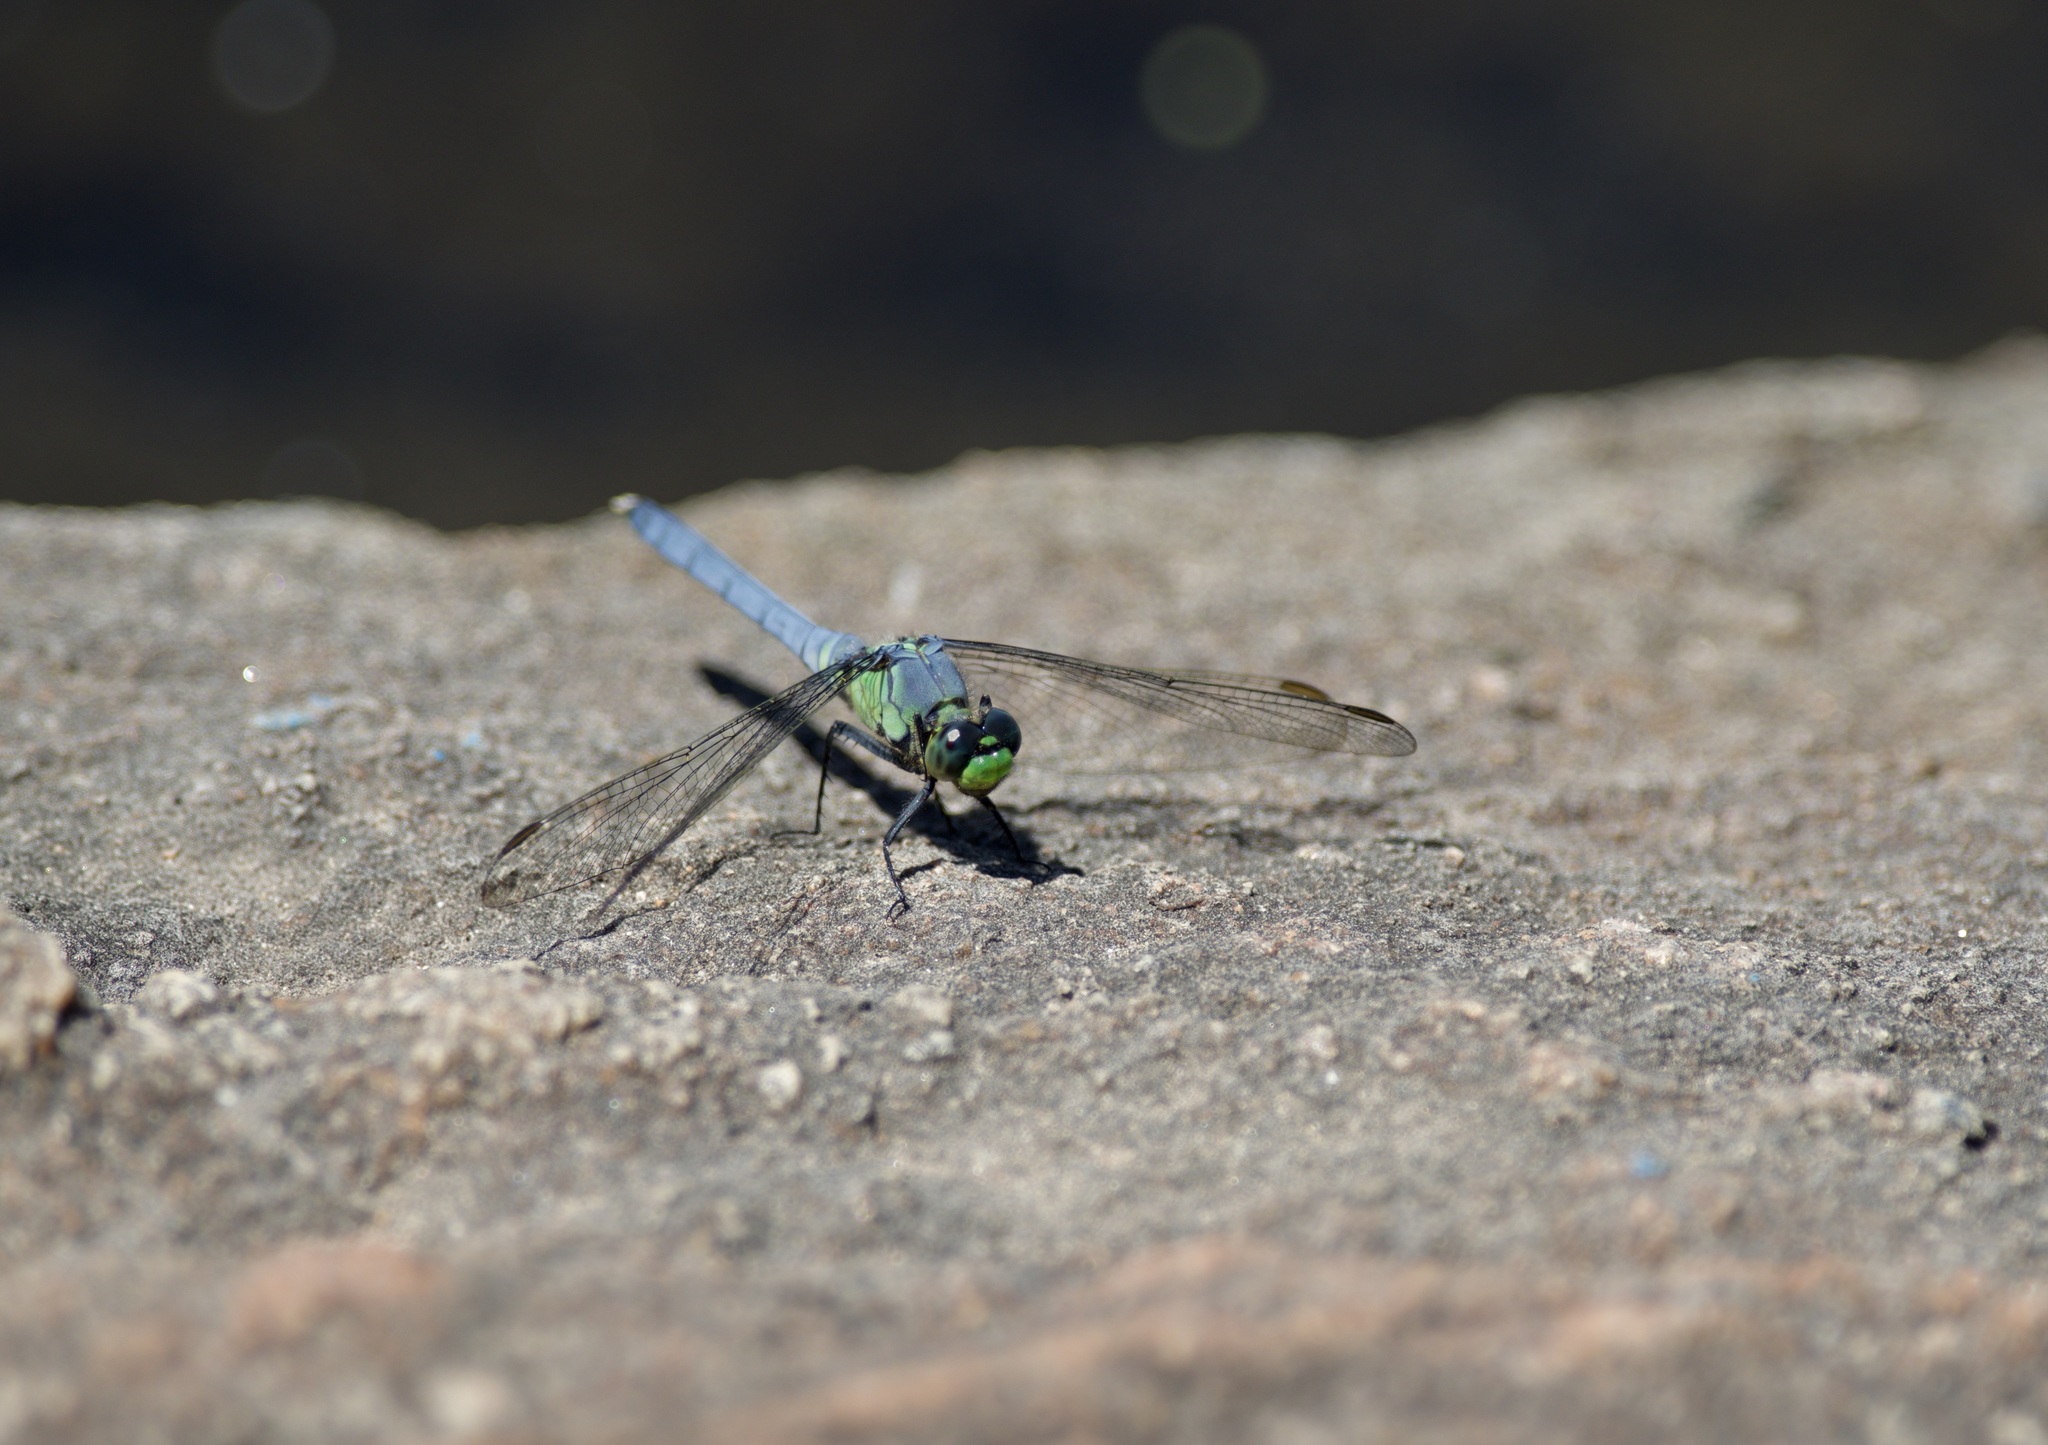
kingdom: Animalia
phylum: Arthropoda
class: Insecta
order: Odonata
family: Libellulidae
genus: Erythemis
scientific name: Erythemis simplicicollis
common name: Eastern pondhawk
